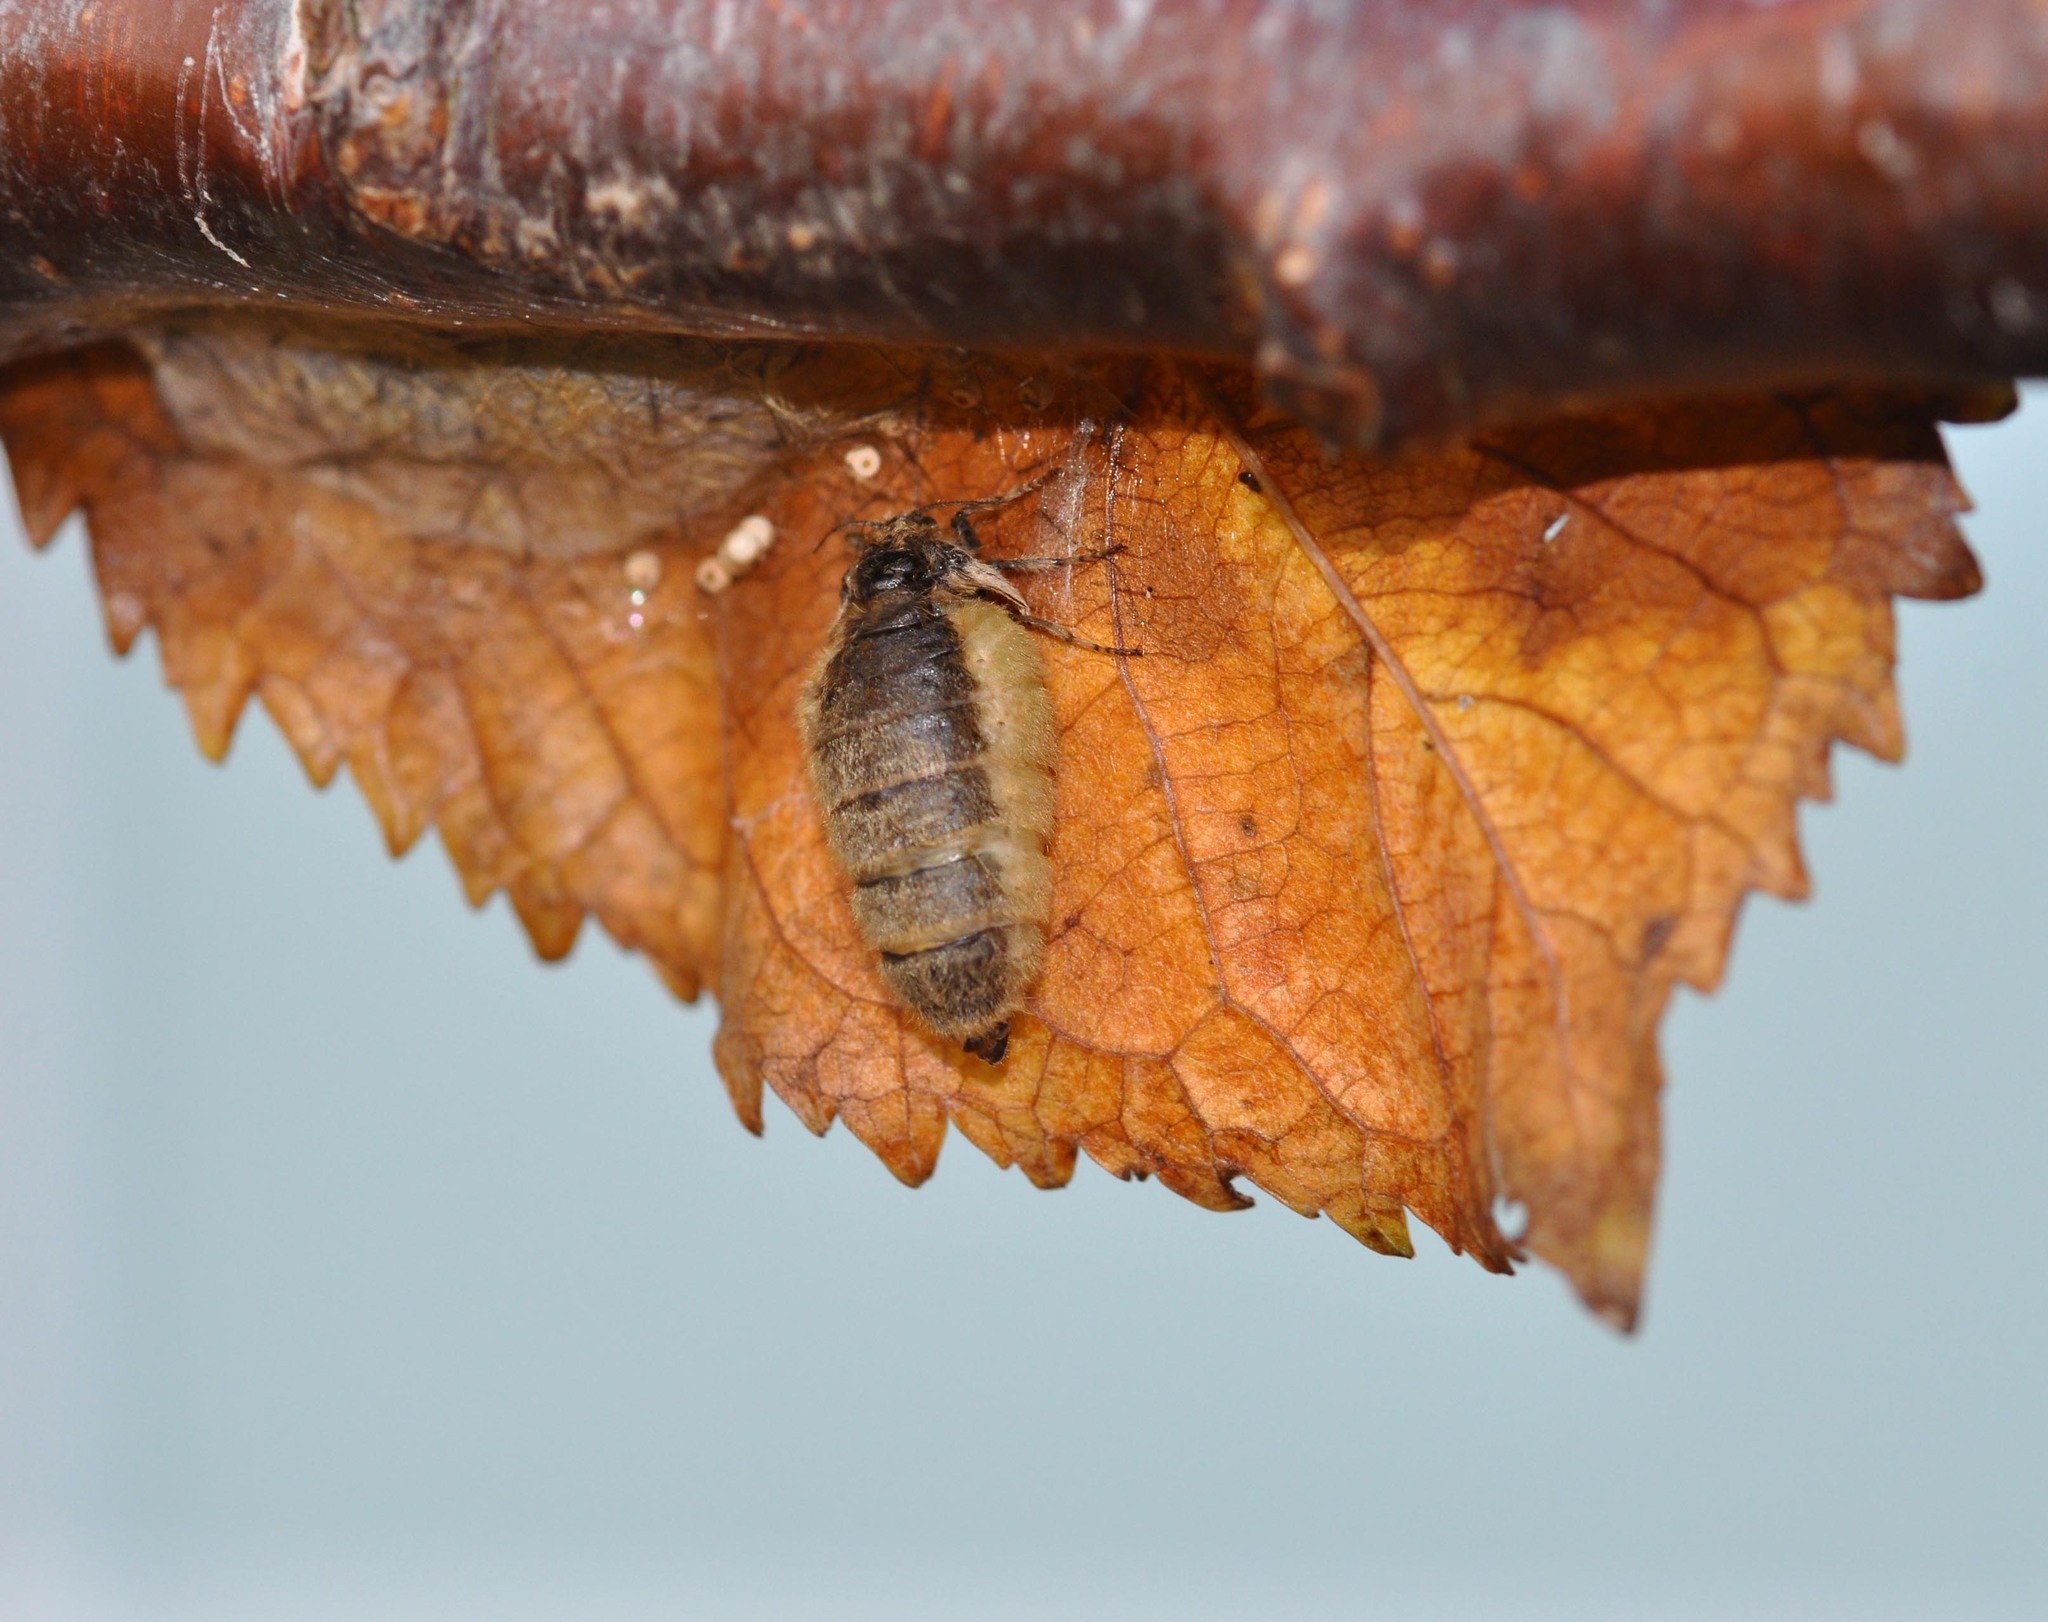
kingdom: Animalia
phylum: Arthropoda
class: Insecta
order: Lepidoptera
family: Erebidae
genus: Orgyia
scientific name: Orgyia antiqua
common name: Vapourer
